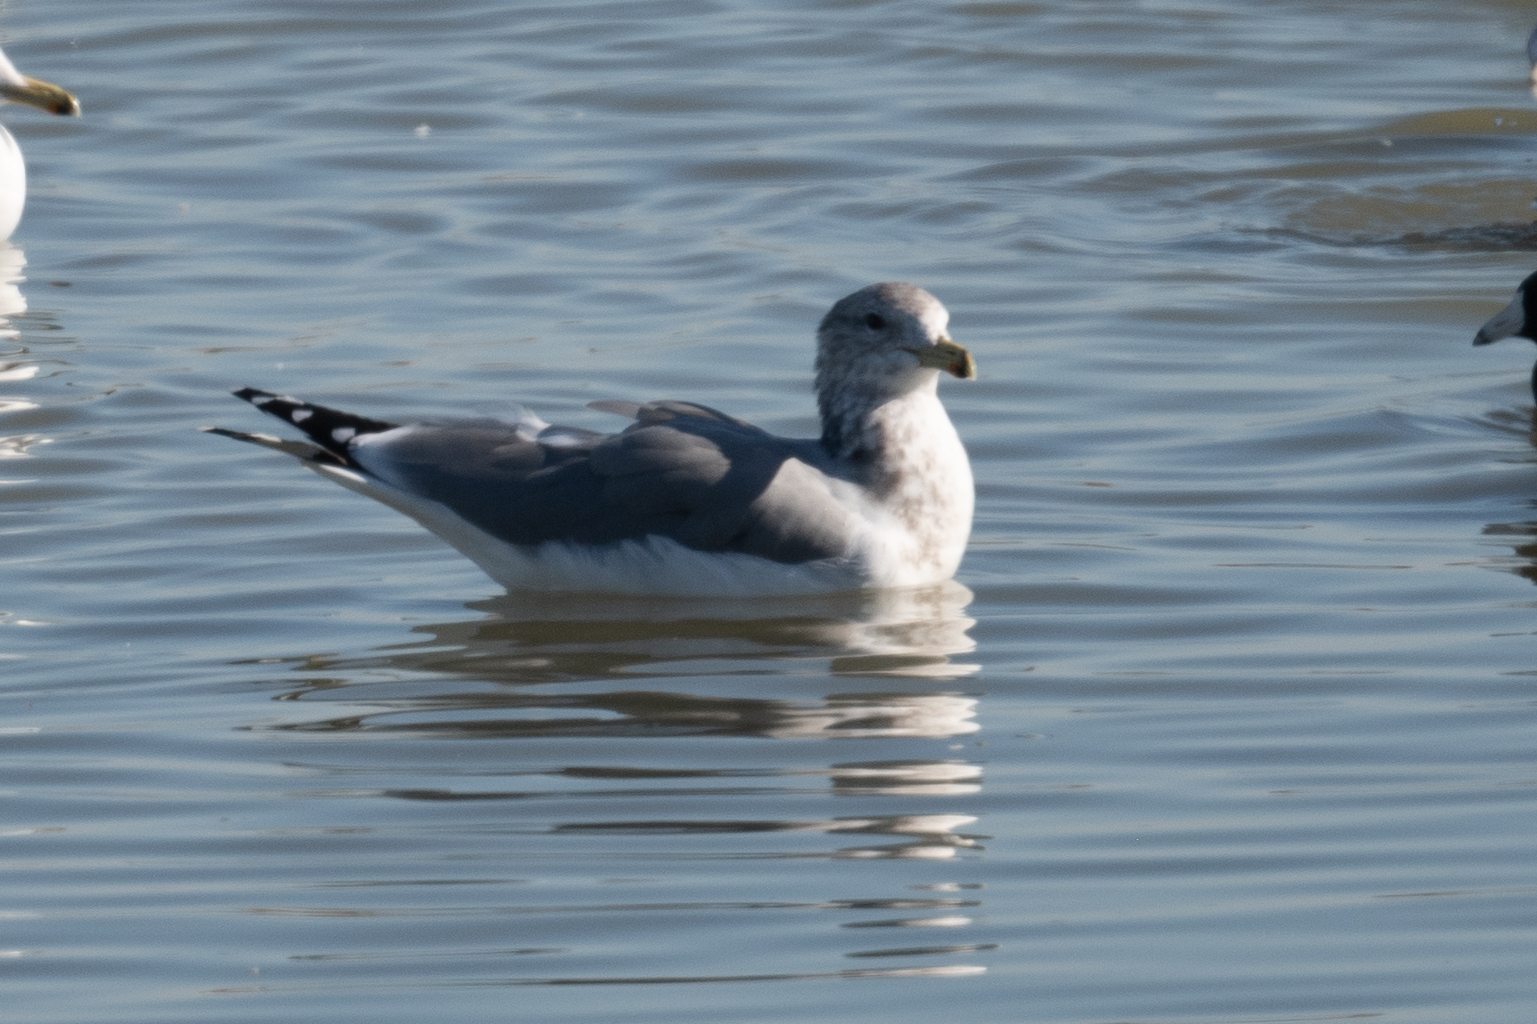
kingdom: Animalia
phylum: Chordata
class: Aves
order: Charadriiformes
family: Laridae
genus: Larus
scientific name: Larus californicus
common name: California gull
